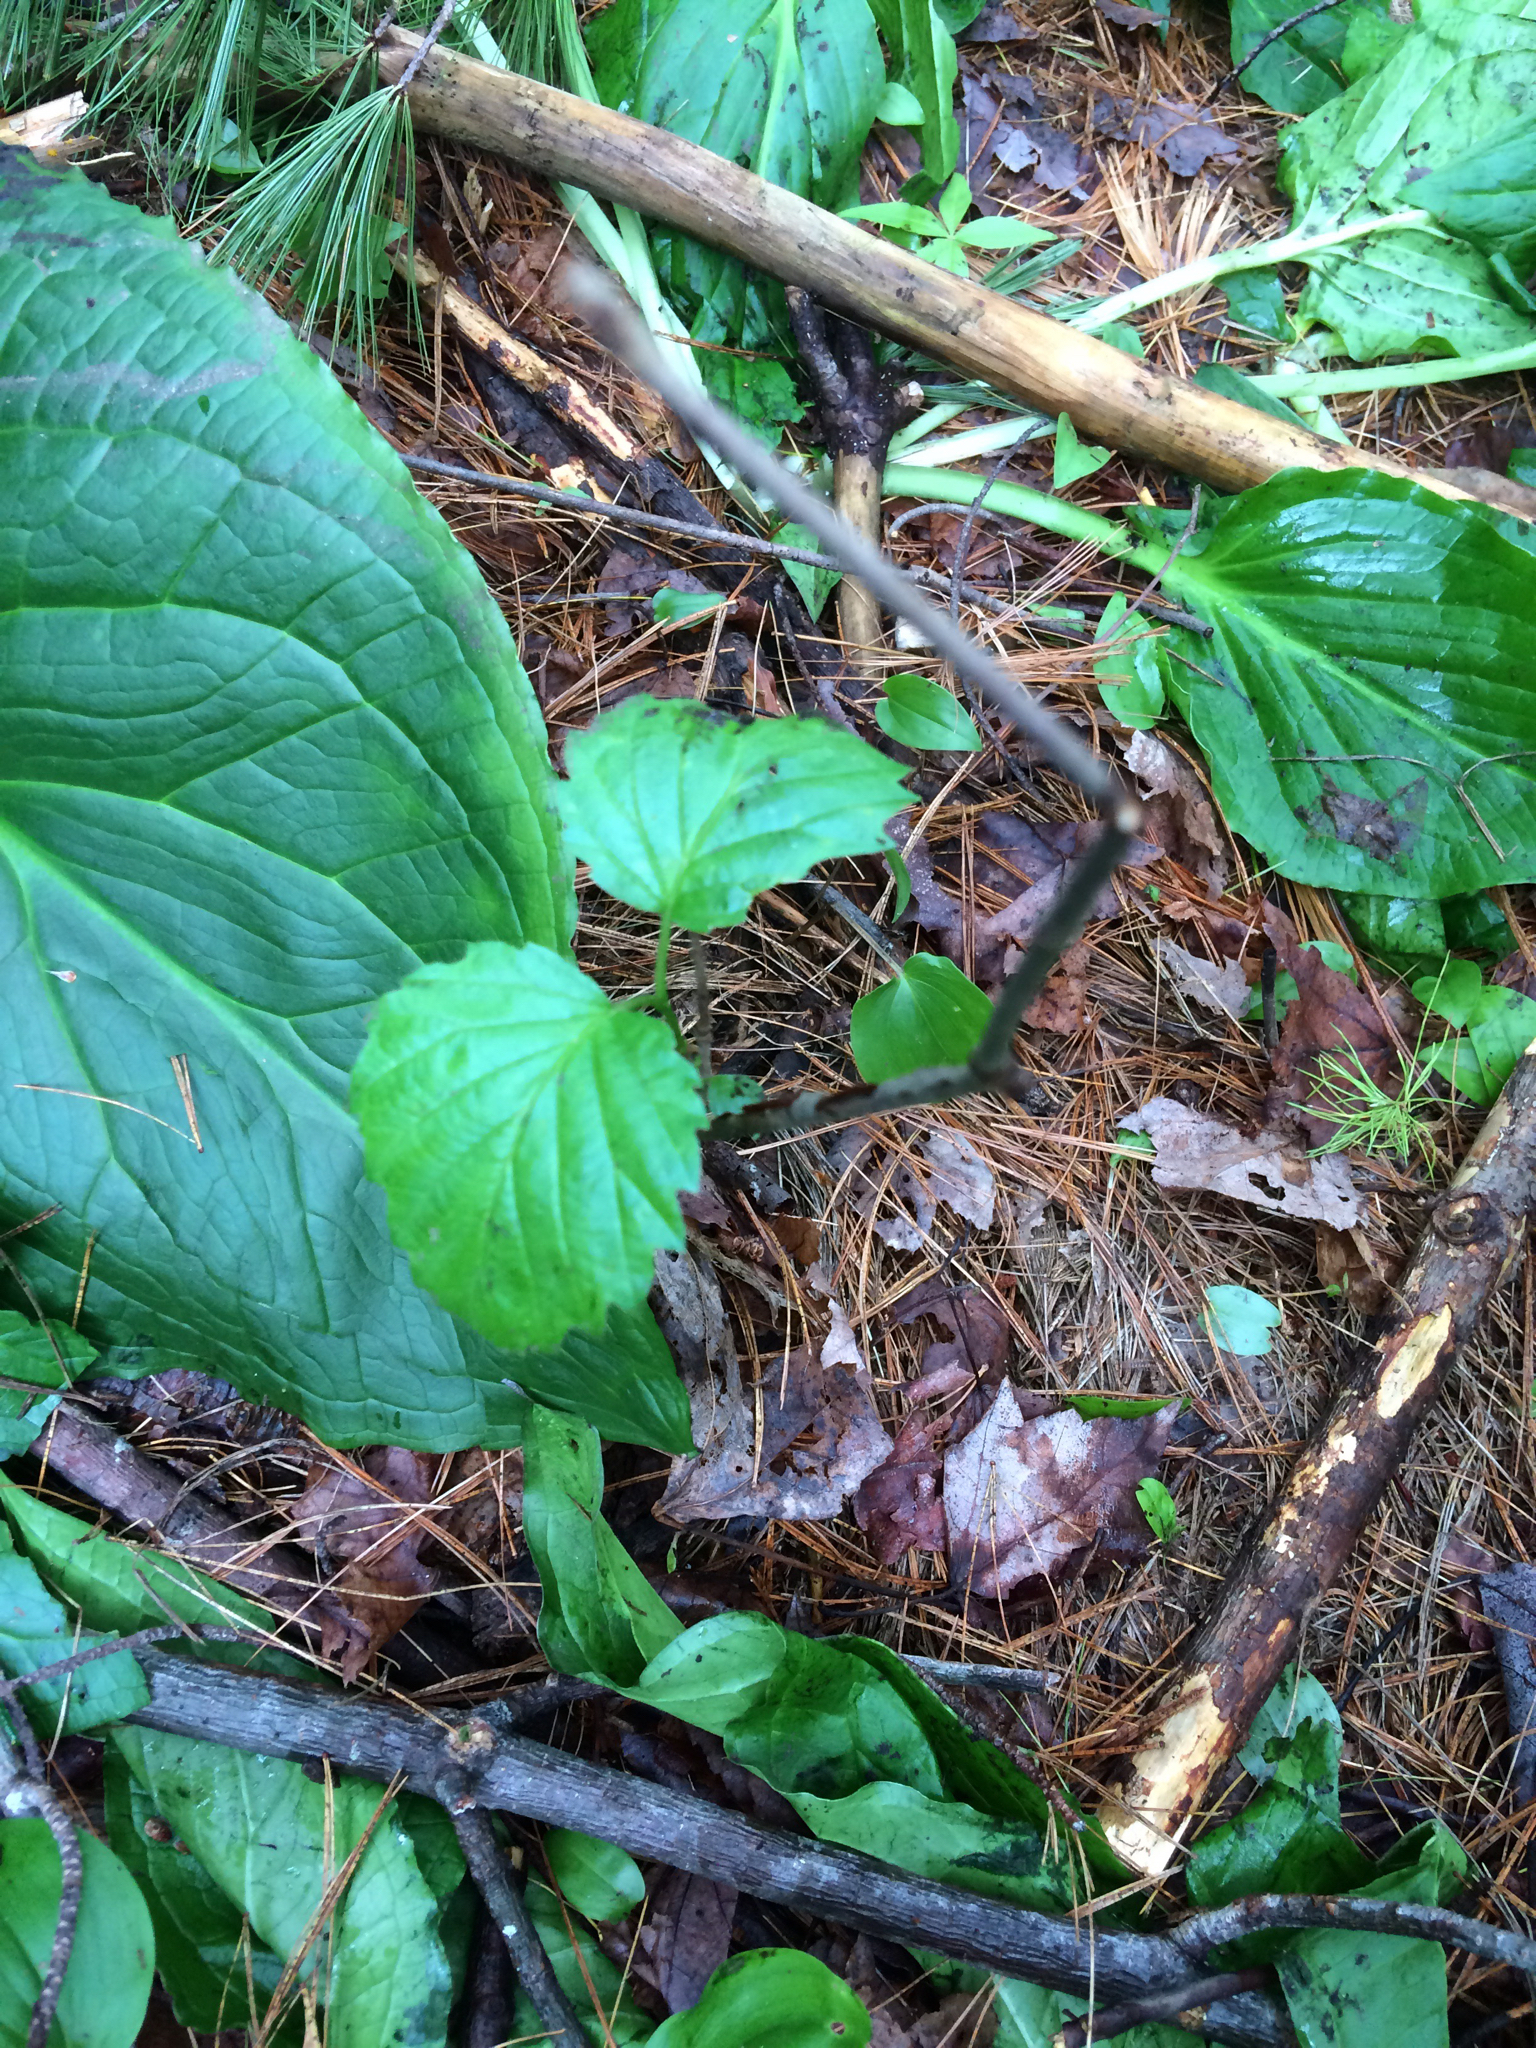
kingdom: Plantae
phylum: Tracheophyta
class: Magnoliopsida
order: Dipsacales
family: Viburnaceae
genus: Viburnum
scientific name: Viburnum dentatum
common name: Arrow-wood
